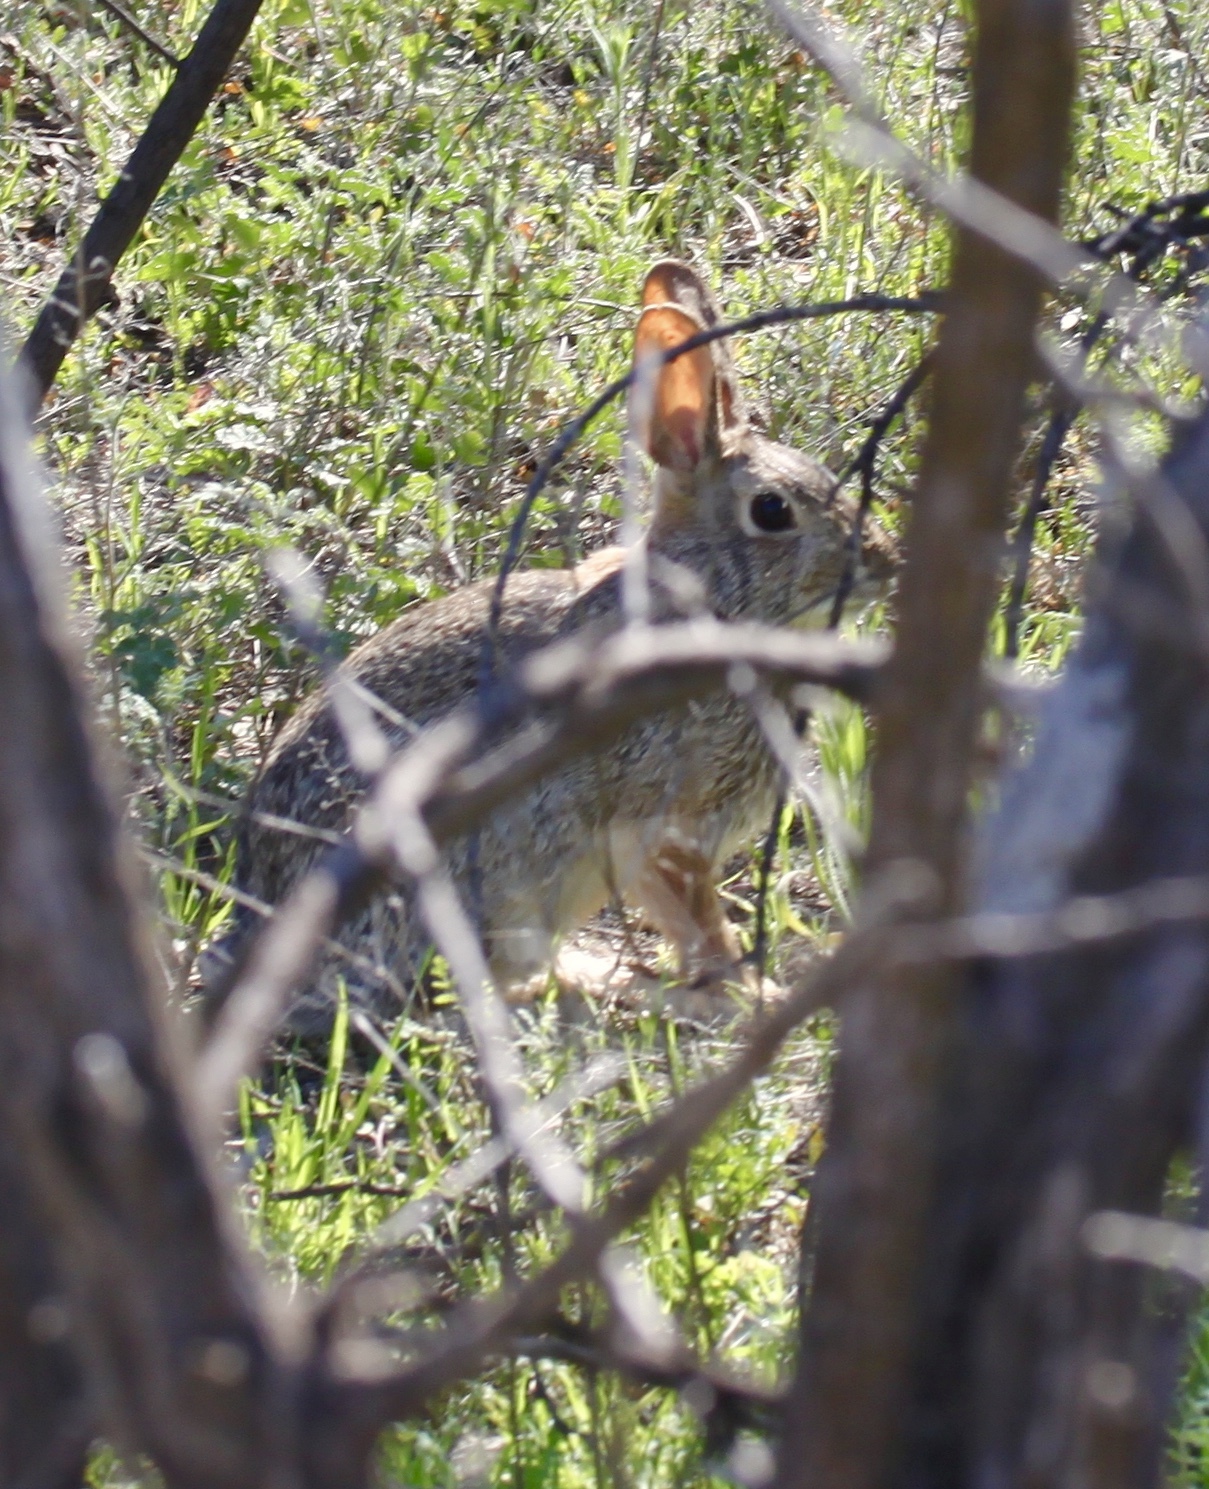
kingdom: Animalia
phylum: Chordata
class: Mammalia
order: Lagomorpha
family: Leporidae
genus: Sylvilagus
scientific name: Sylvilagus audubonii
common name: Desert cottontail
